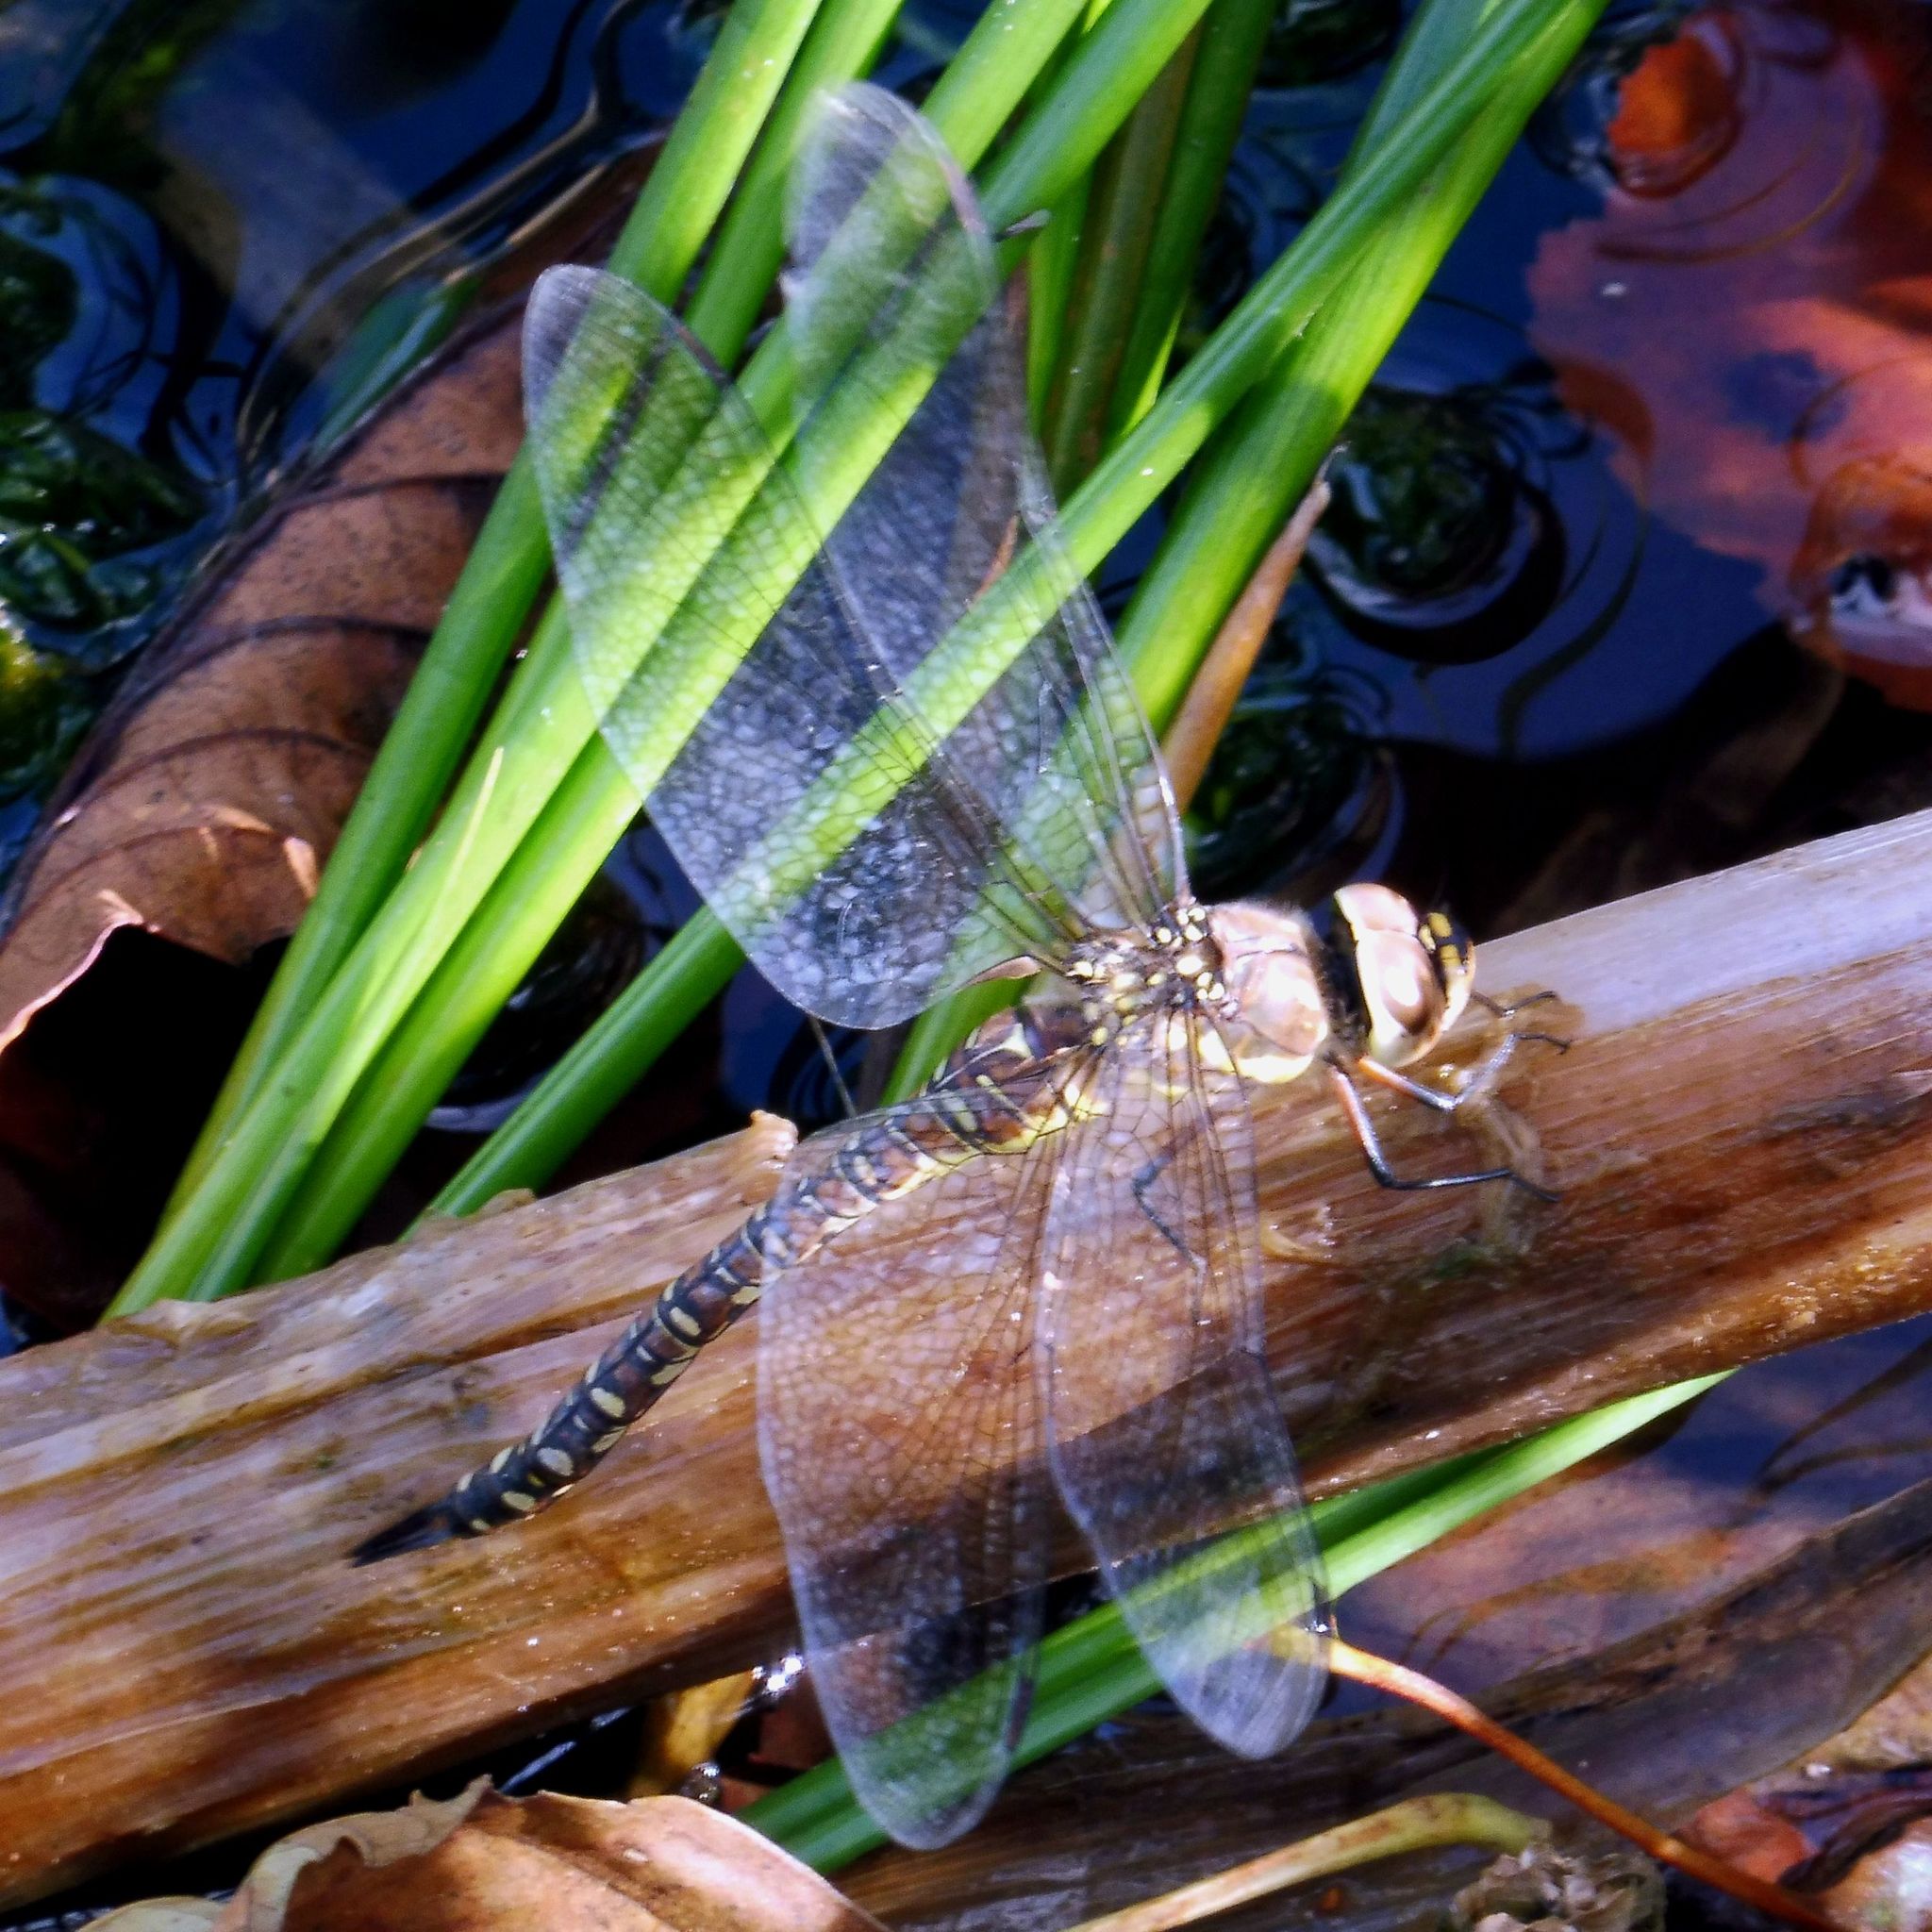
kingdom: Animalia
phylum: Arthropoda
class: Insecta
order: Odonata
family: Aeshnidae
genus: Aeshna
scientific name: Aeshna mixta
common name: Migrant hawker
